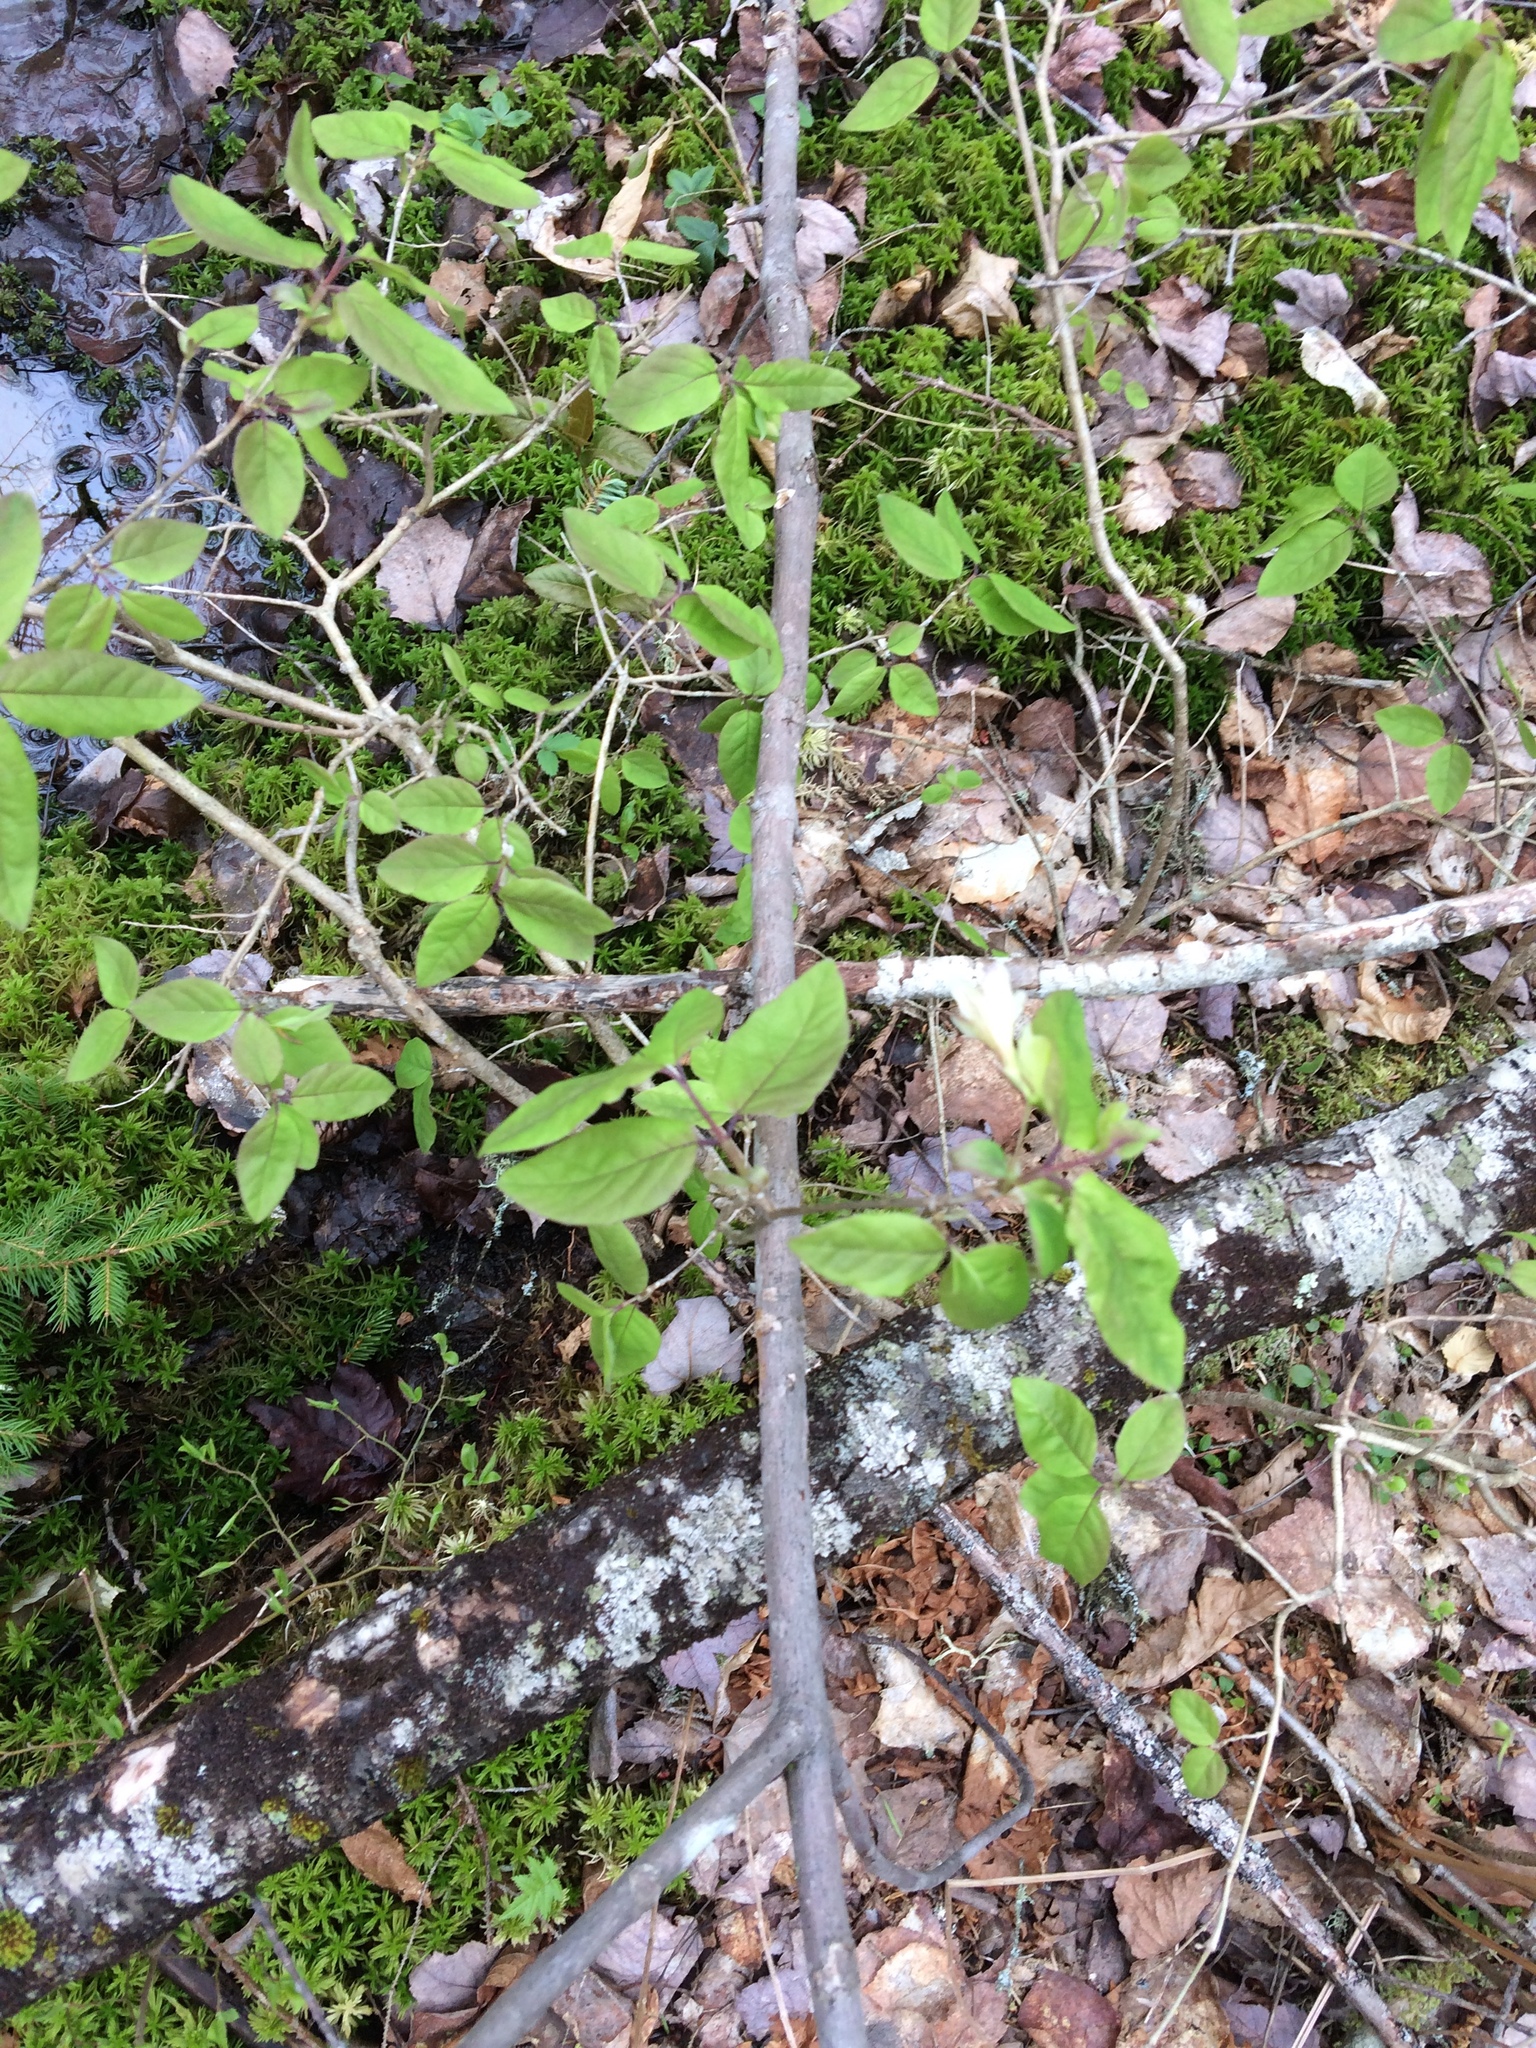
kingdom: Plantae
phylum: Tracheophyta
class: Magnoliopsida
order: Dipsacales
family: Caprifoliaceae
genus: Lonicera
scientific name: Lonicera canadensis
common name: American fly-honeysuckle
